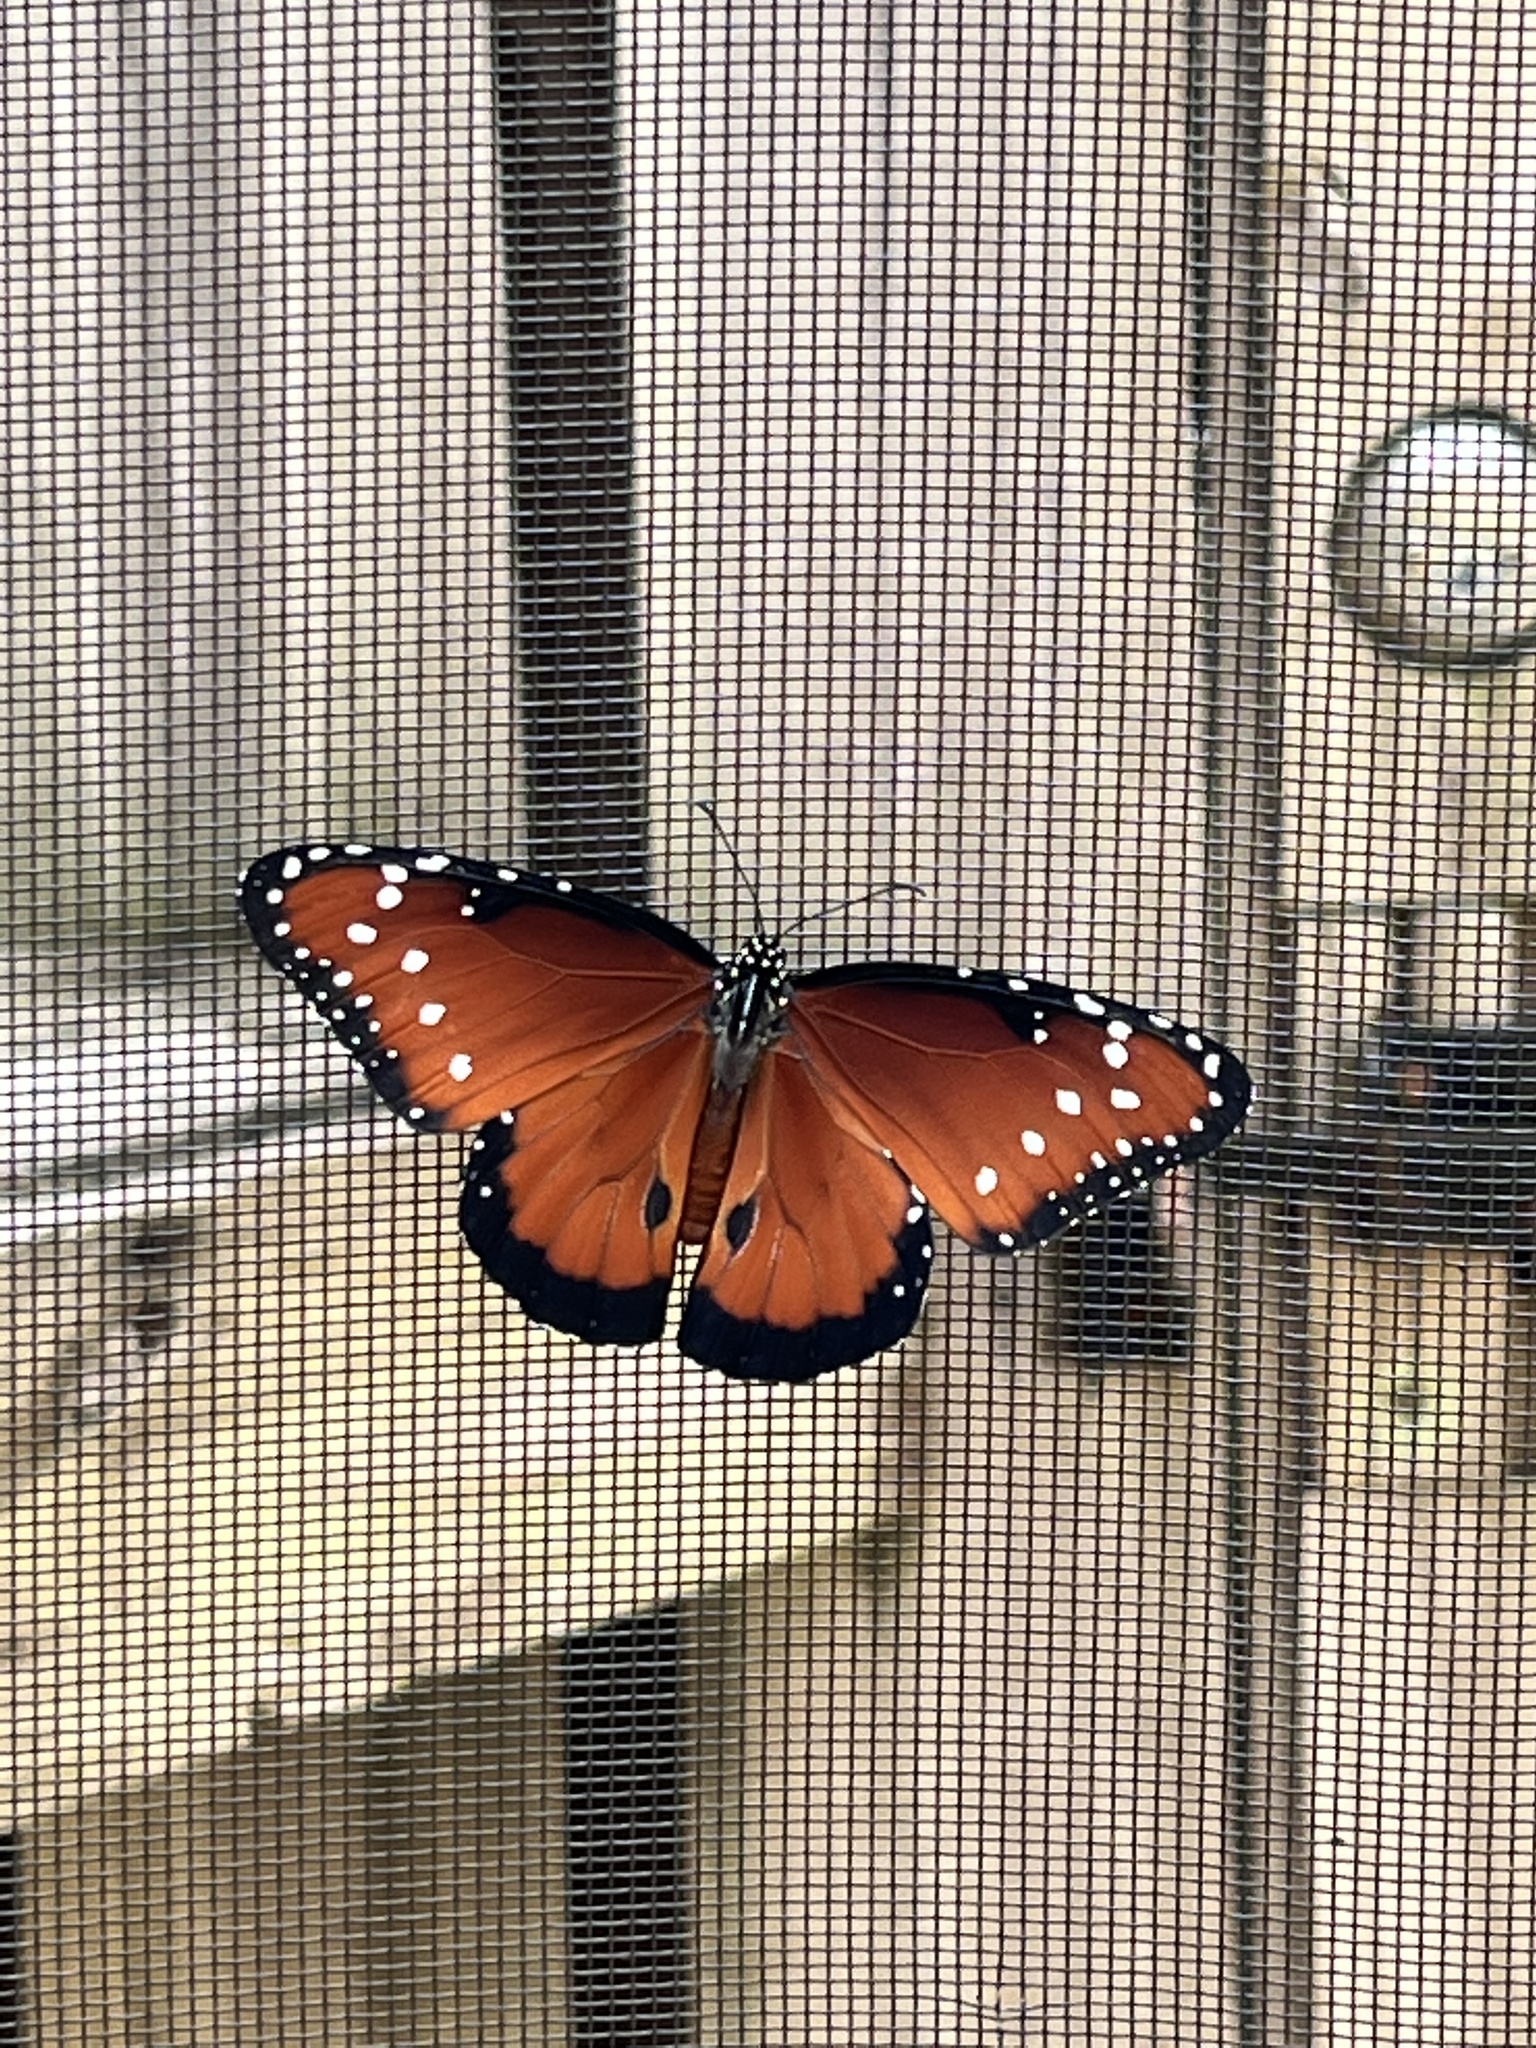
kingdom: Animalia
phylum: Arthropoda
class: Insecta
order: Lepidoptera
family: Nymphalidae
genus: Danaus
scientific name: Danaus gilippus
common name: Queen
